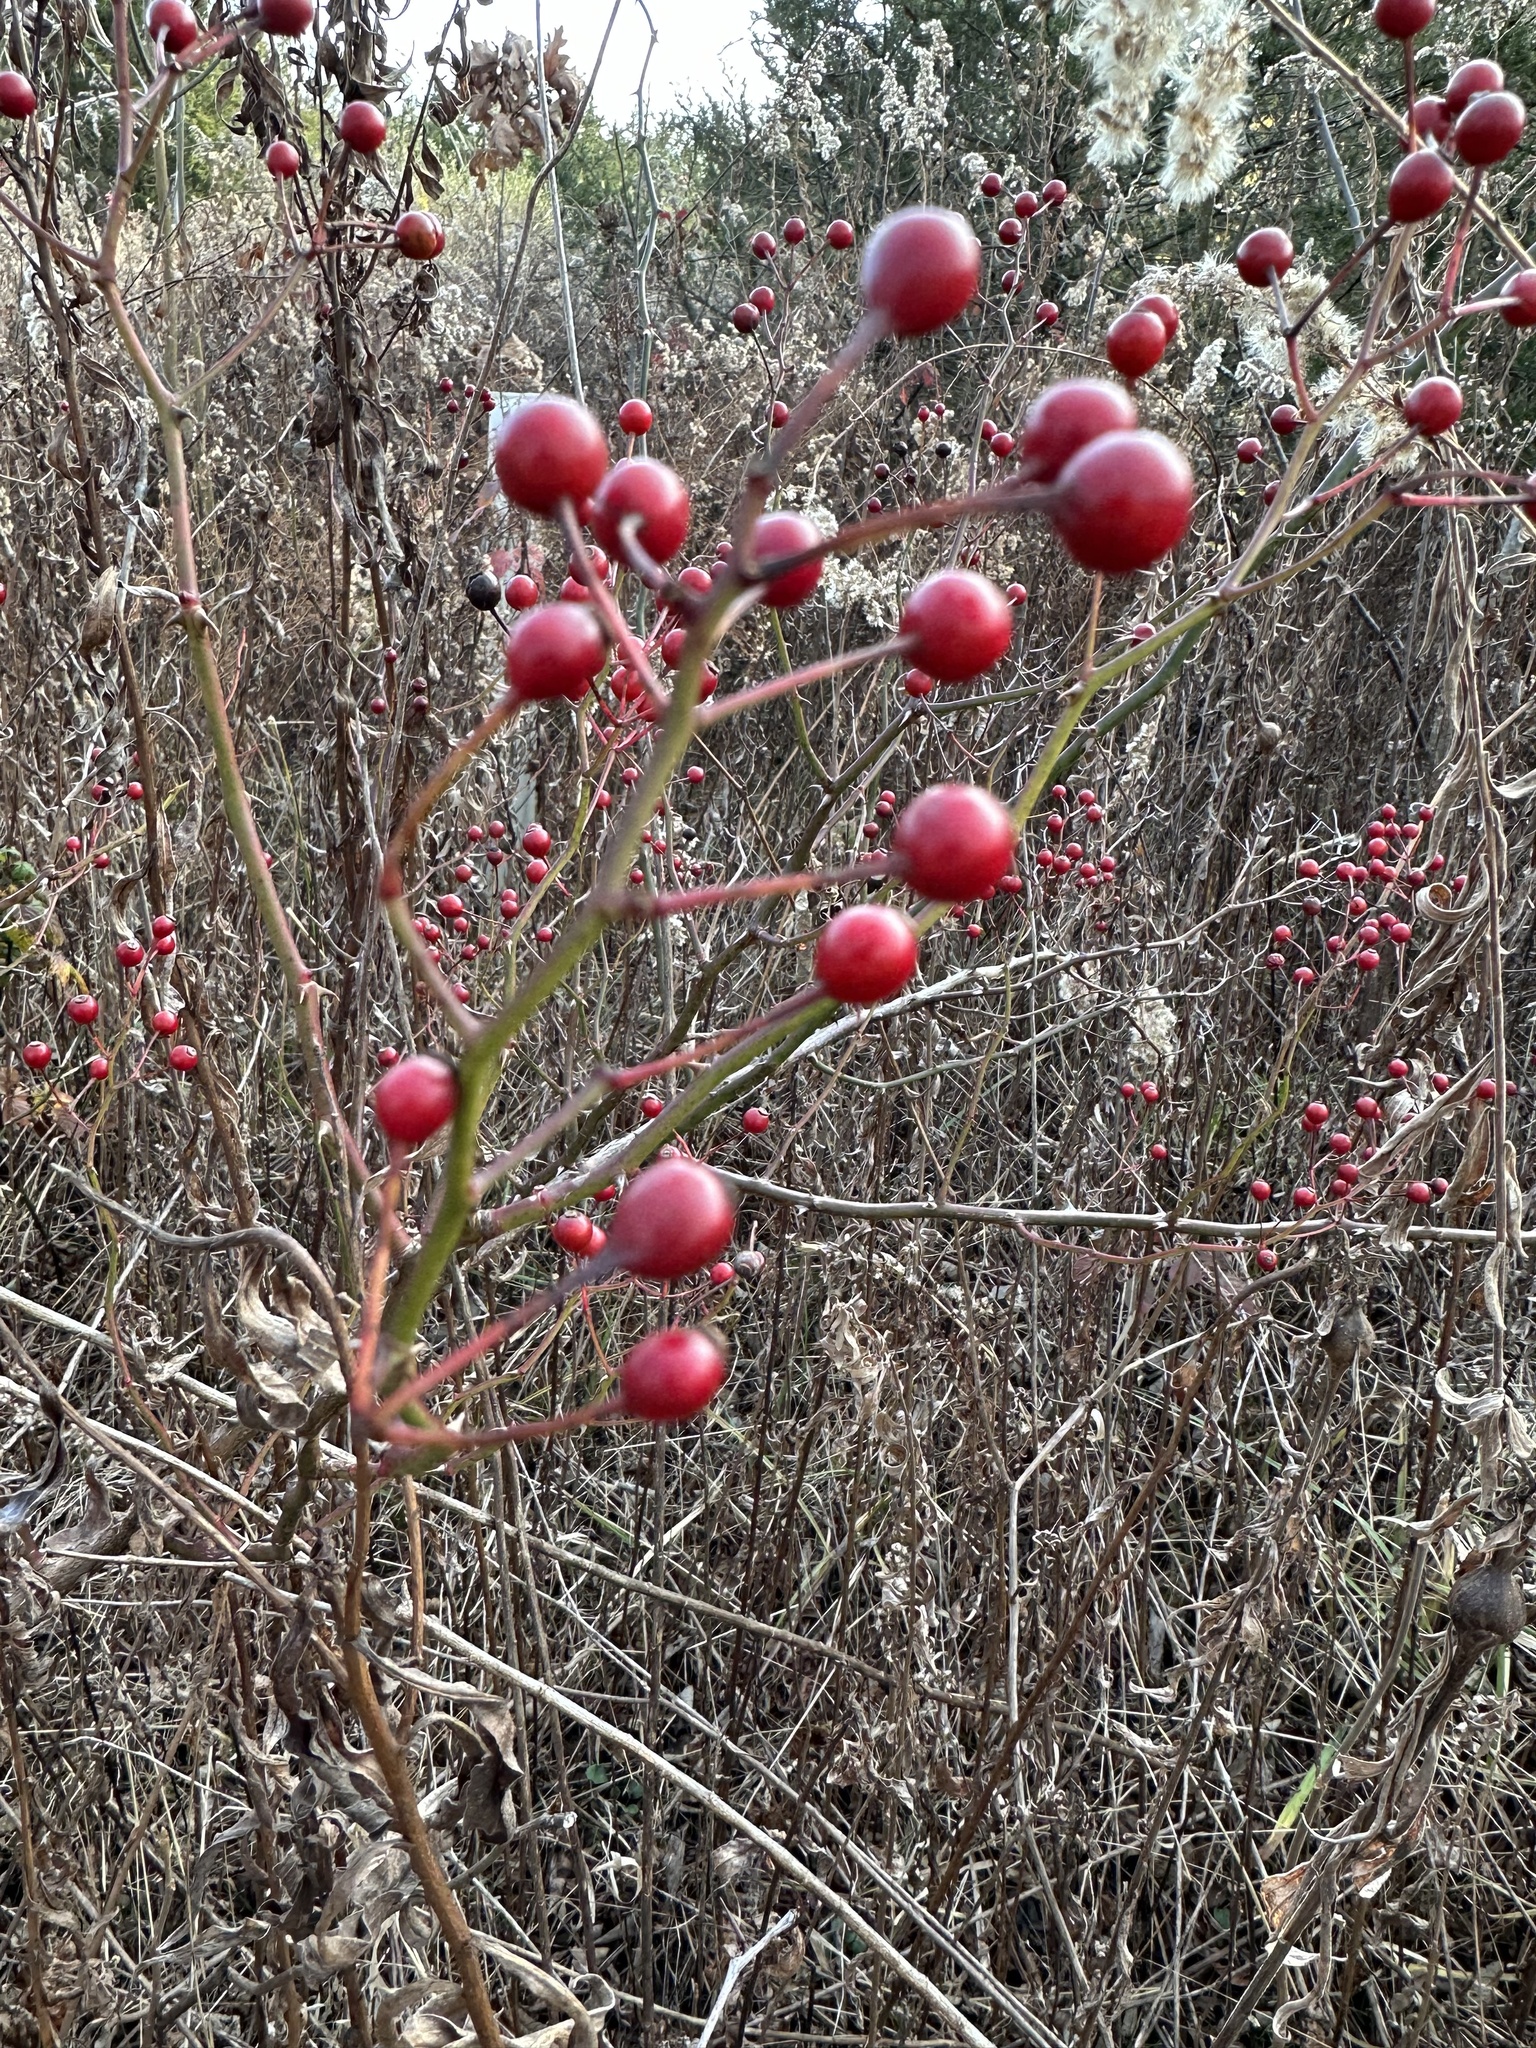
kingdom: Plantae
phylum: Tracheophyta
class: Magnoliopsida
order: Rosales
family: Rosaceae
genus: Rosa
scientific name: Rosa multiflora
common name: Multiflora rose
